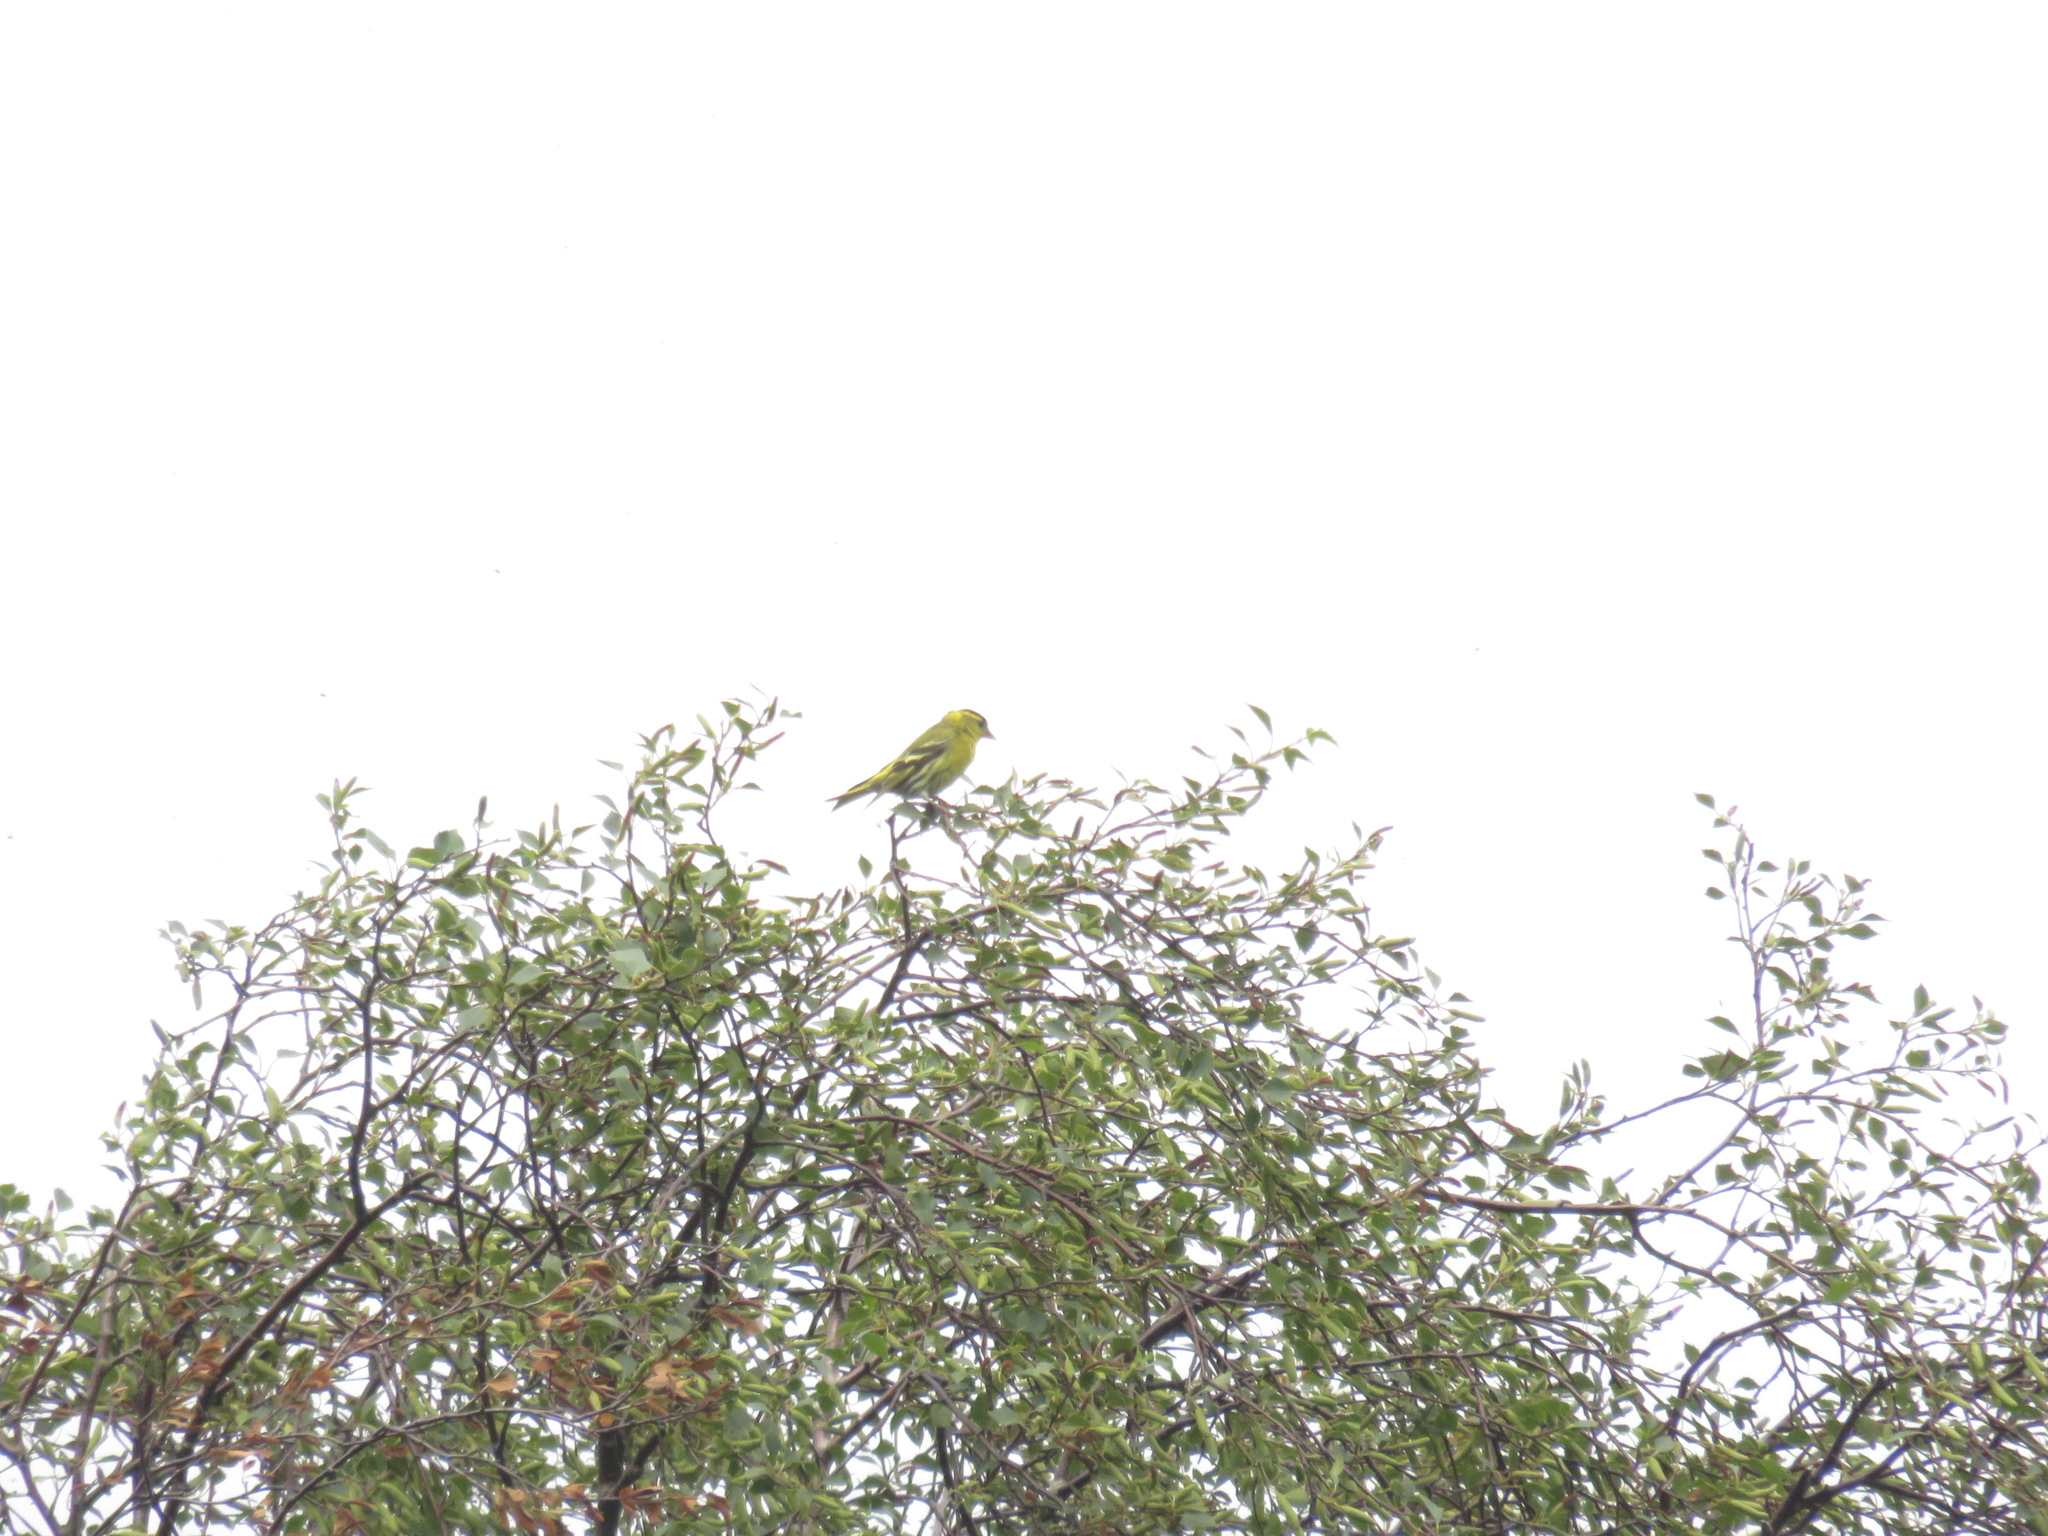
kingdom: Animalia
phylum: Chordata
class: Aves
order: Passeriformes
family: Fringillidae
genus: Spinus
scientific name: Spinus spinus
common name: Eurasian siskin
